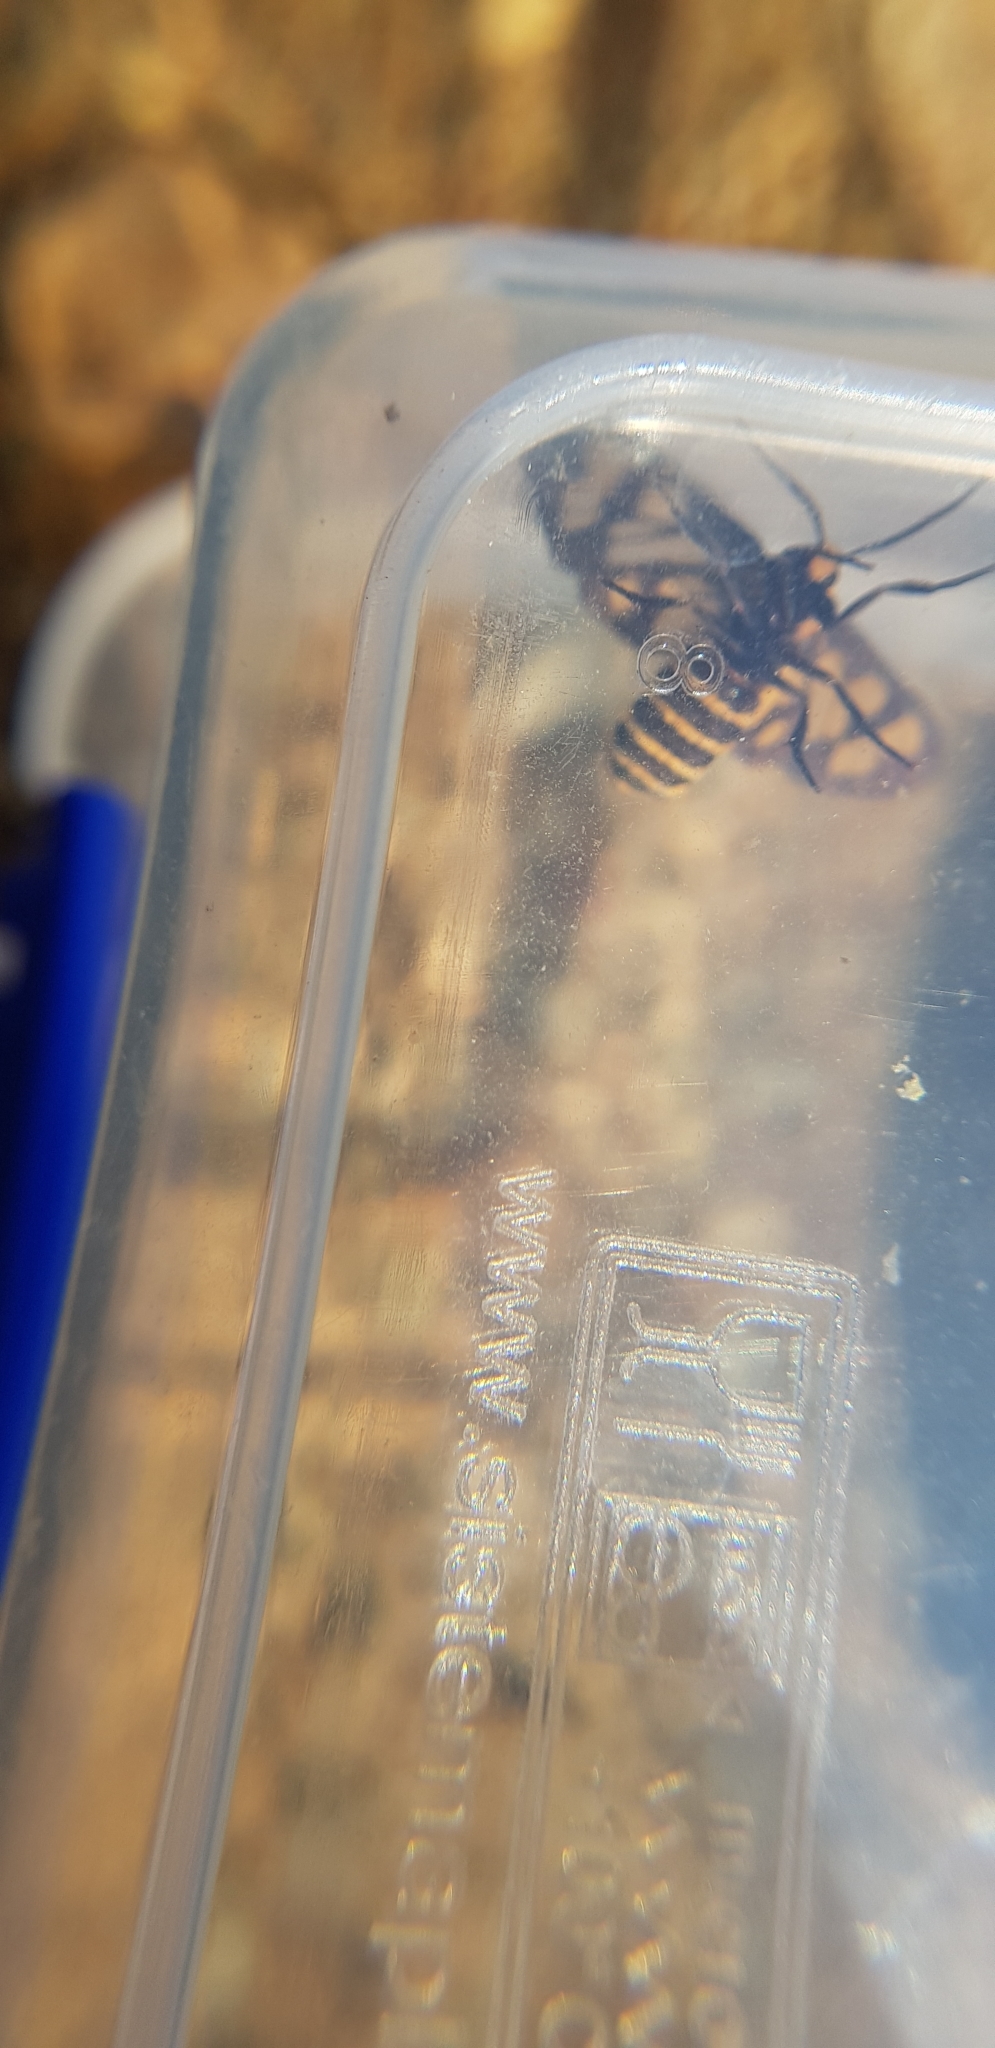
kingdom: Animalia
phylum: Arthropoda
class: Insecta
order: Lepidoptera
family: Erebidae
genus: Eressa
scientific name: Eressa geographica
